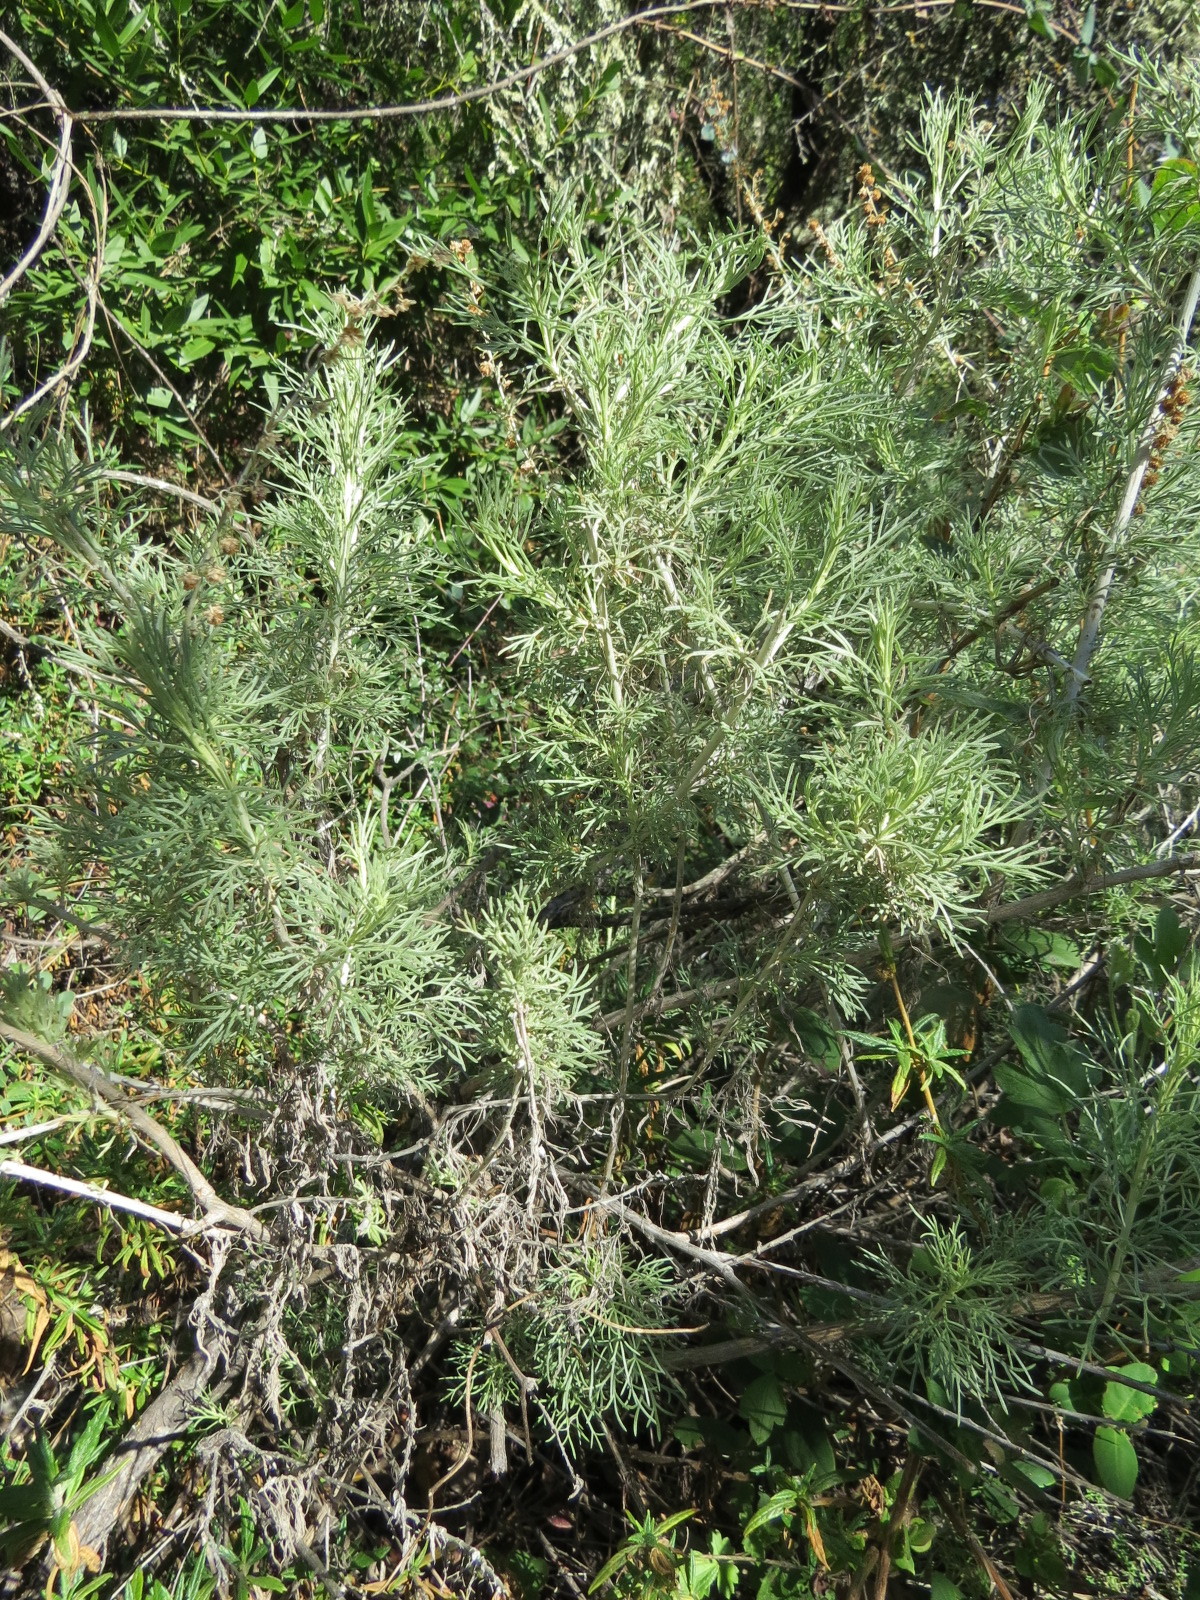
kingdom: Plantae
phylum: Tracheophyta
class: Magnoliopsida
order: Asterales
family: Asteraceae
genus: Artemisia
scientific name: Artemisia californica
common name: California sagebrush
